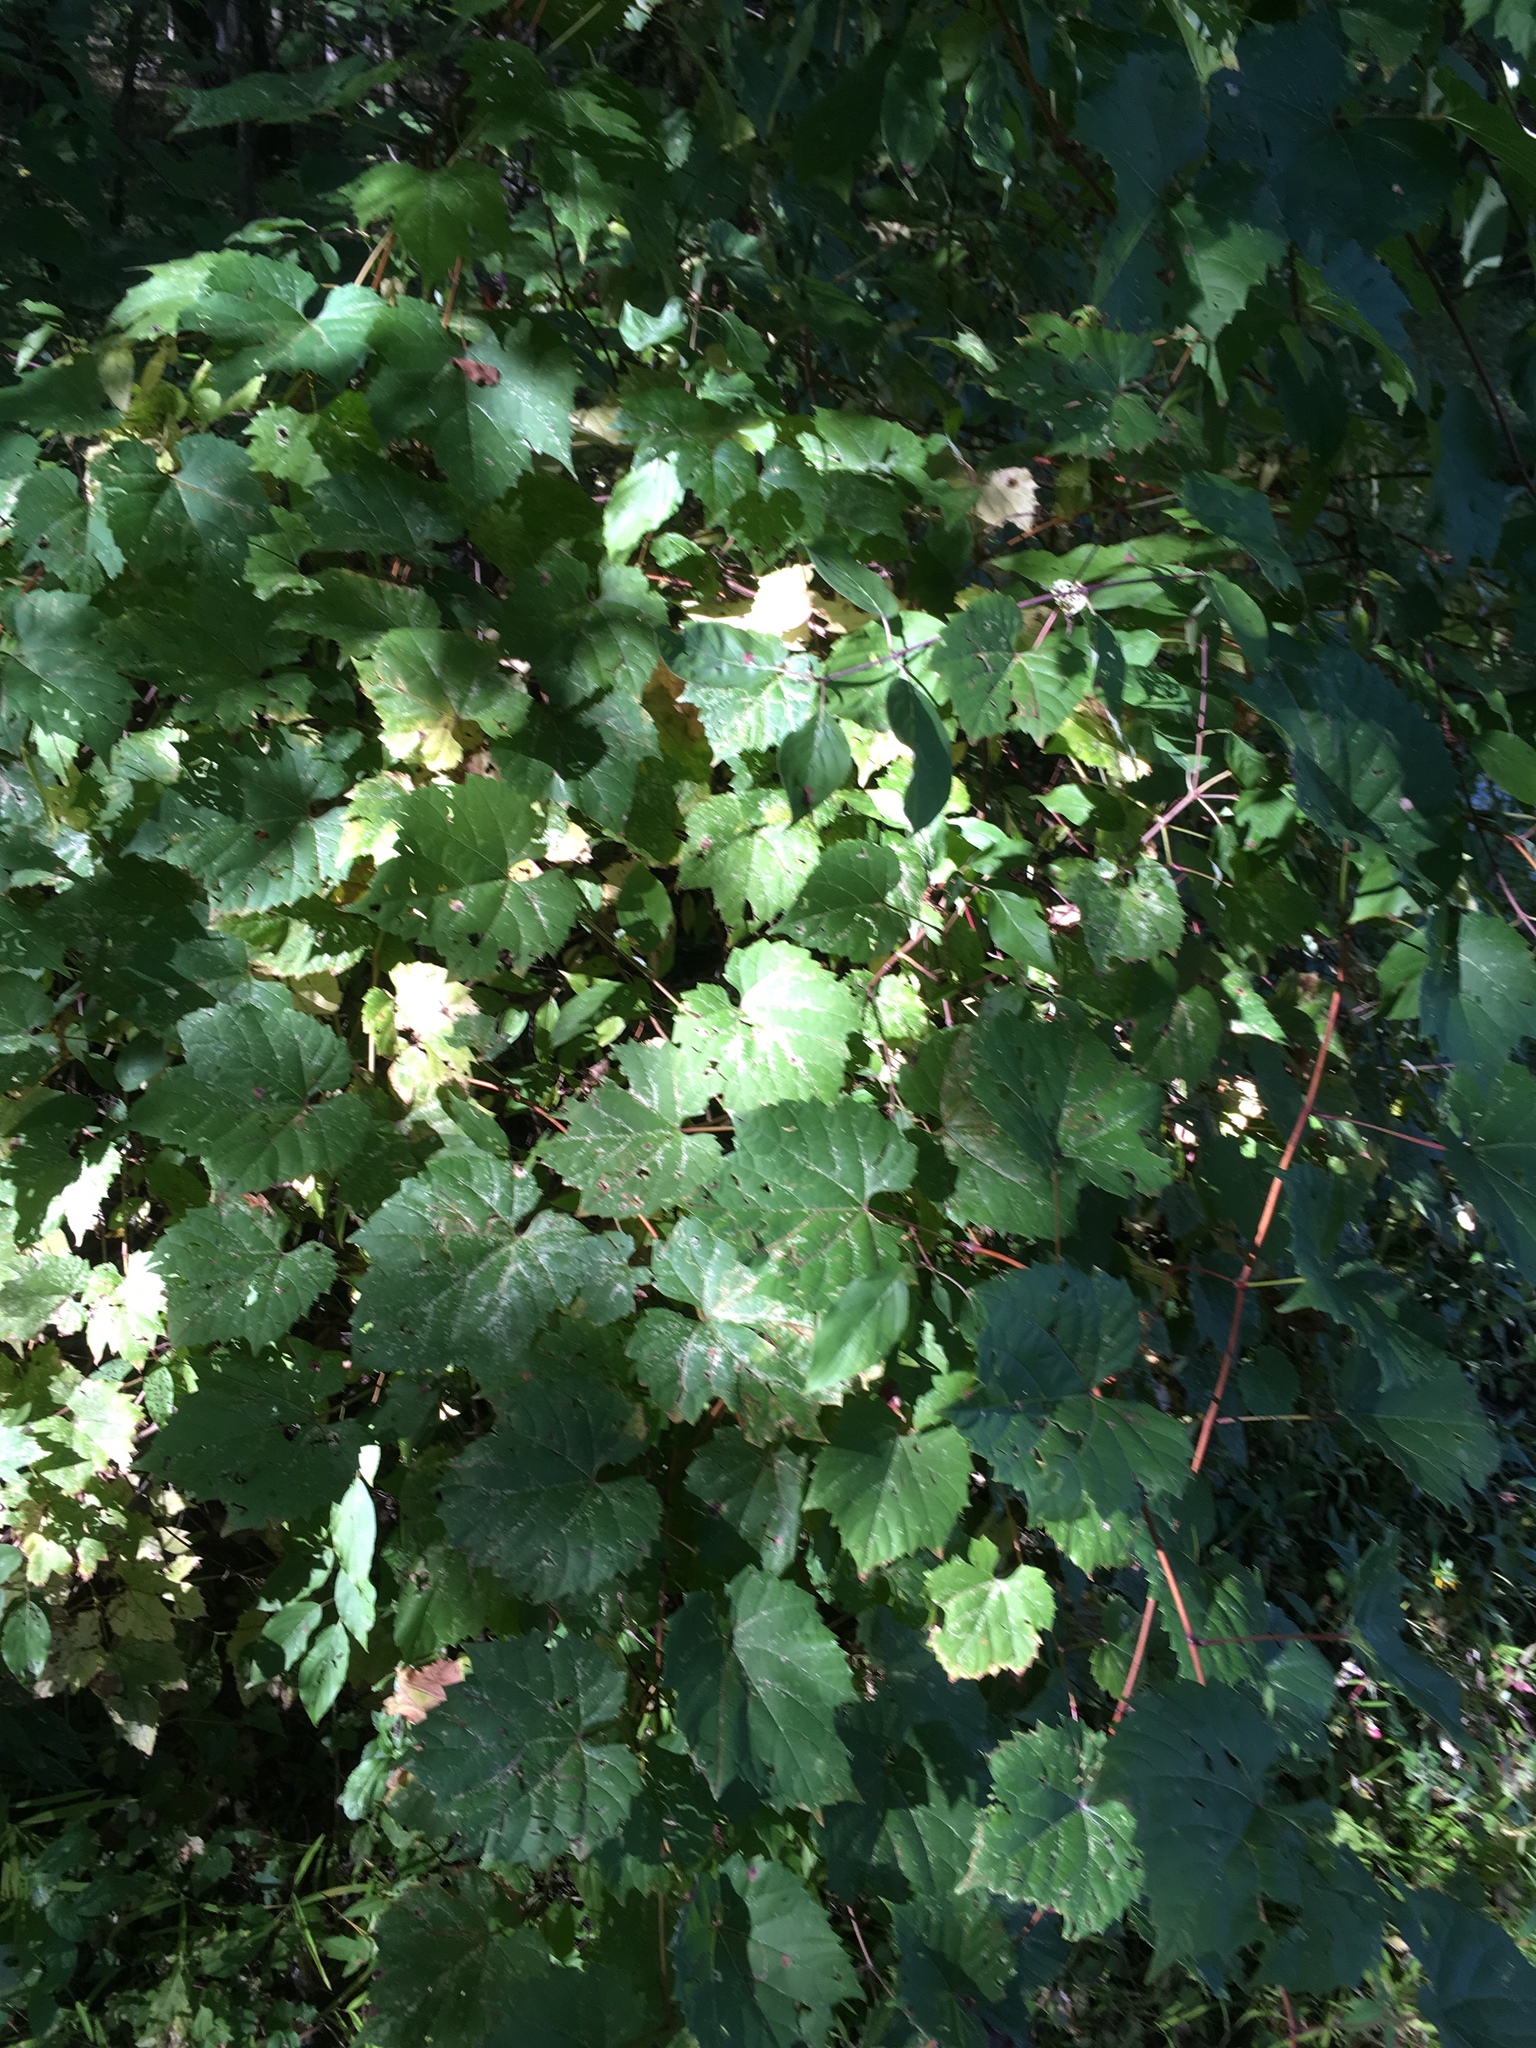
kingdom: Plantae
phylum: Tracheophyta
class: Magnoliopsida
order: Vitales
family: Vitaceae
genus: Vitis
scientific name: Vitis riparia
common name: Frost grape
